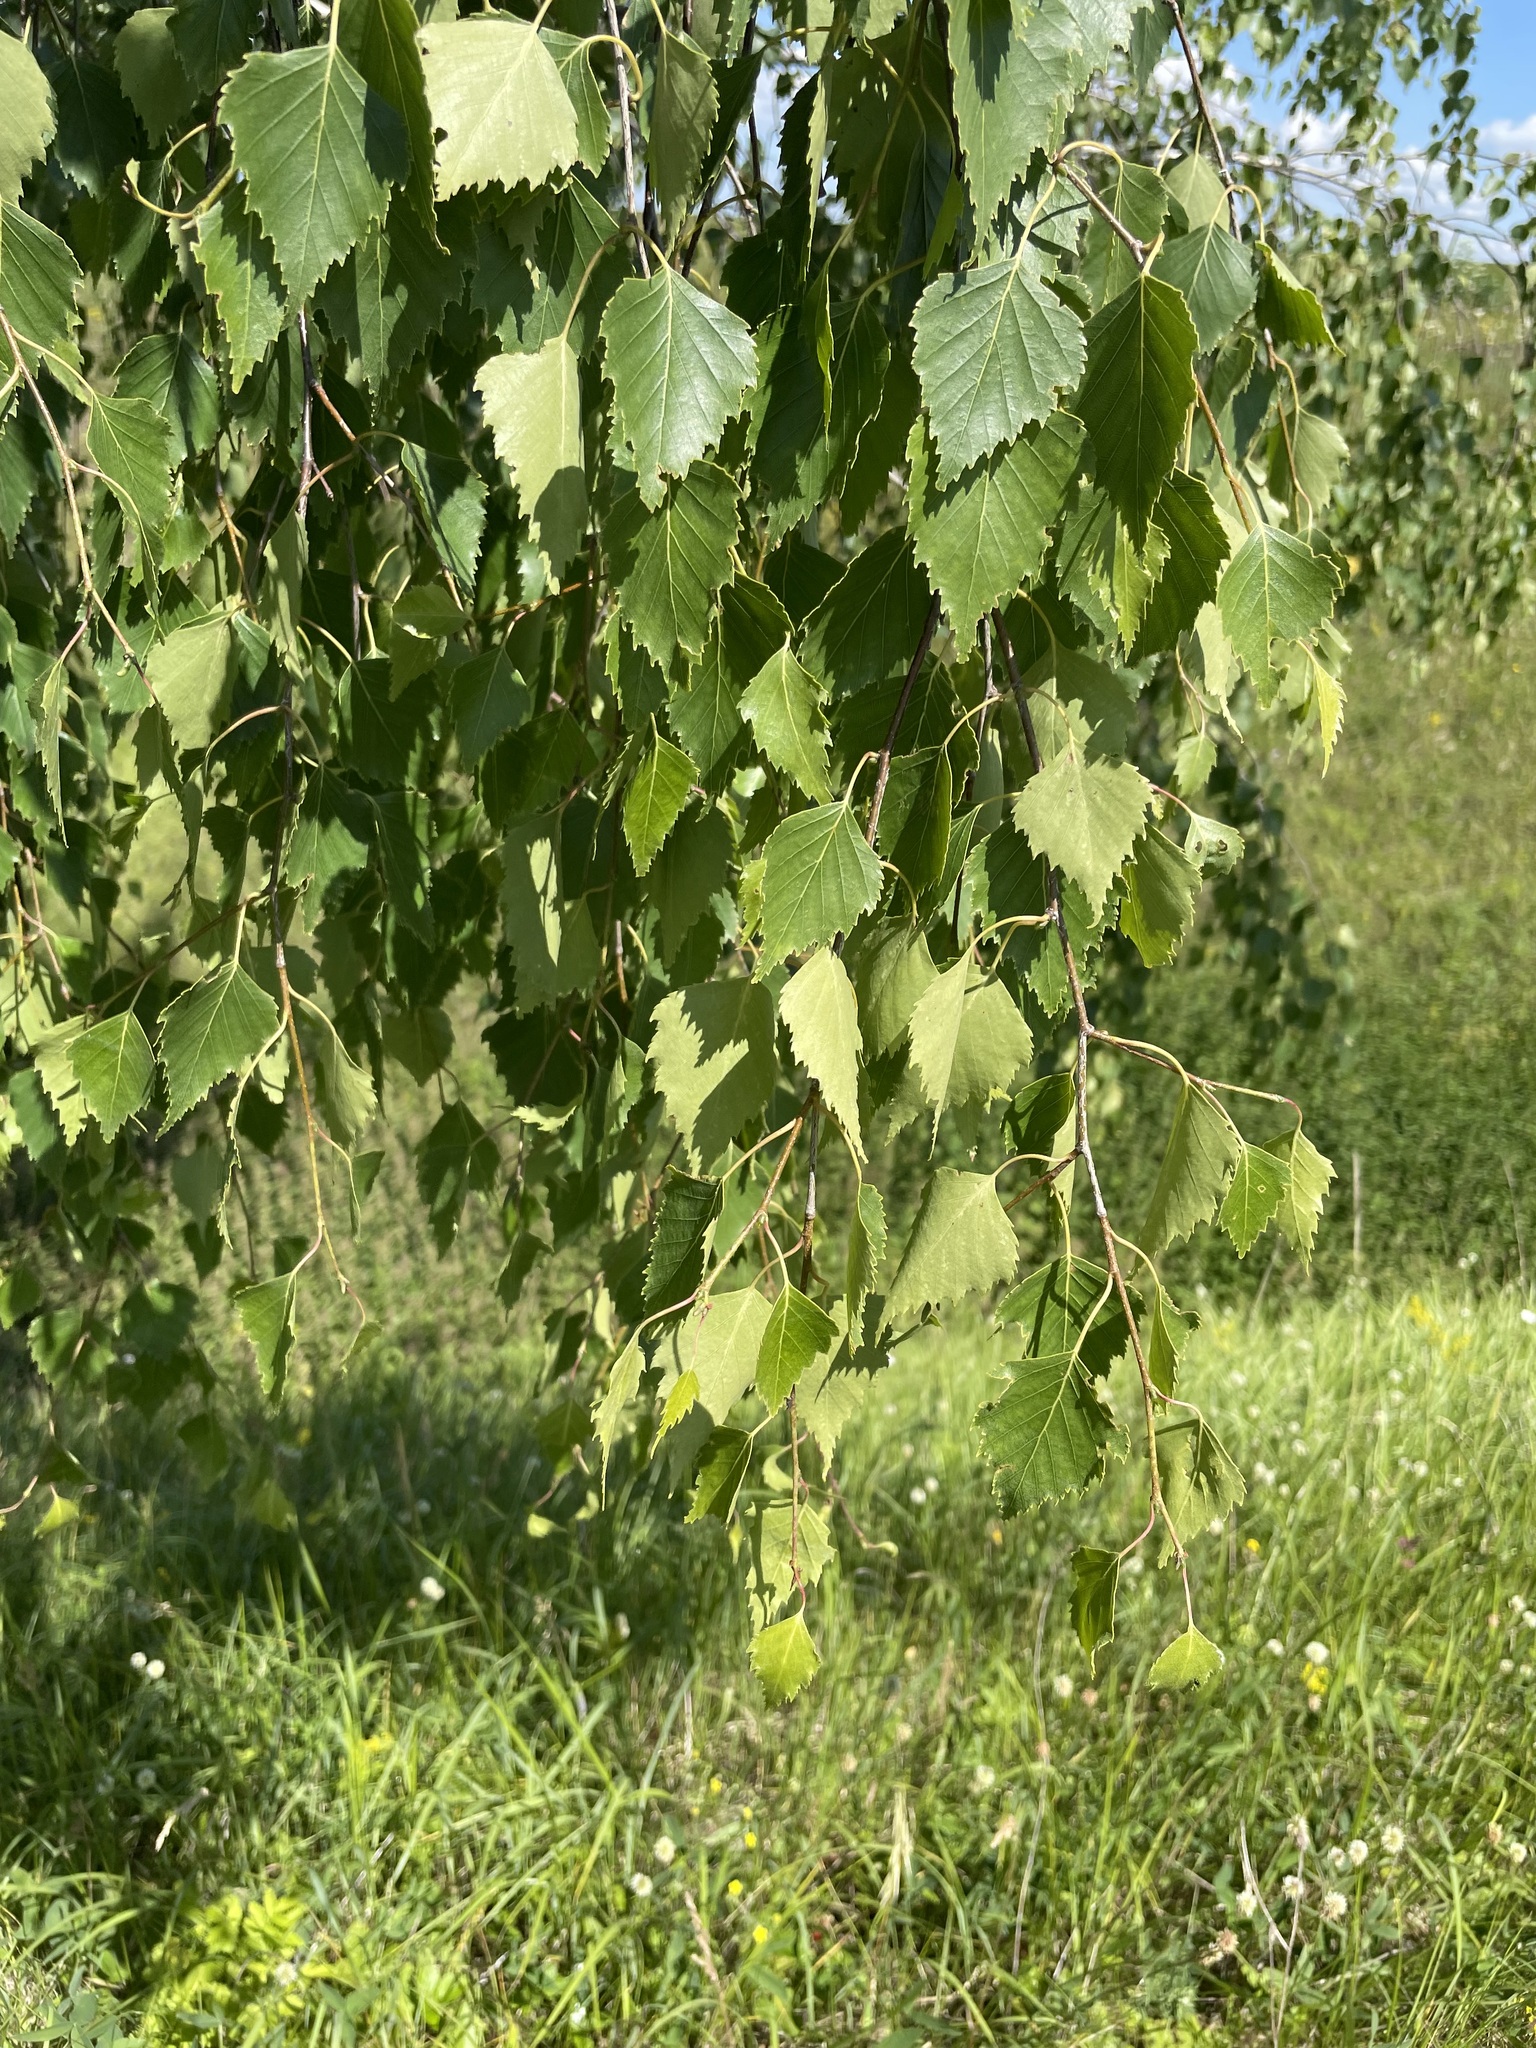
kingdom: Plantae
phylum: Tracheophyta
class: Magnoliopsida
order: Fagales
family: Betulaceae
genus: Betula
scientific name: Betula pendula
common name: Silver birch
